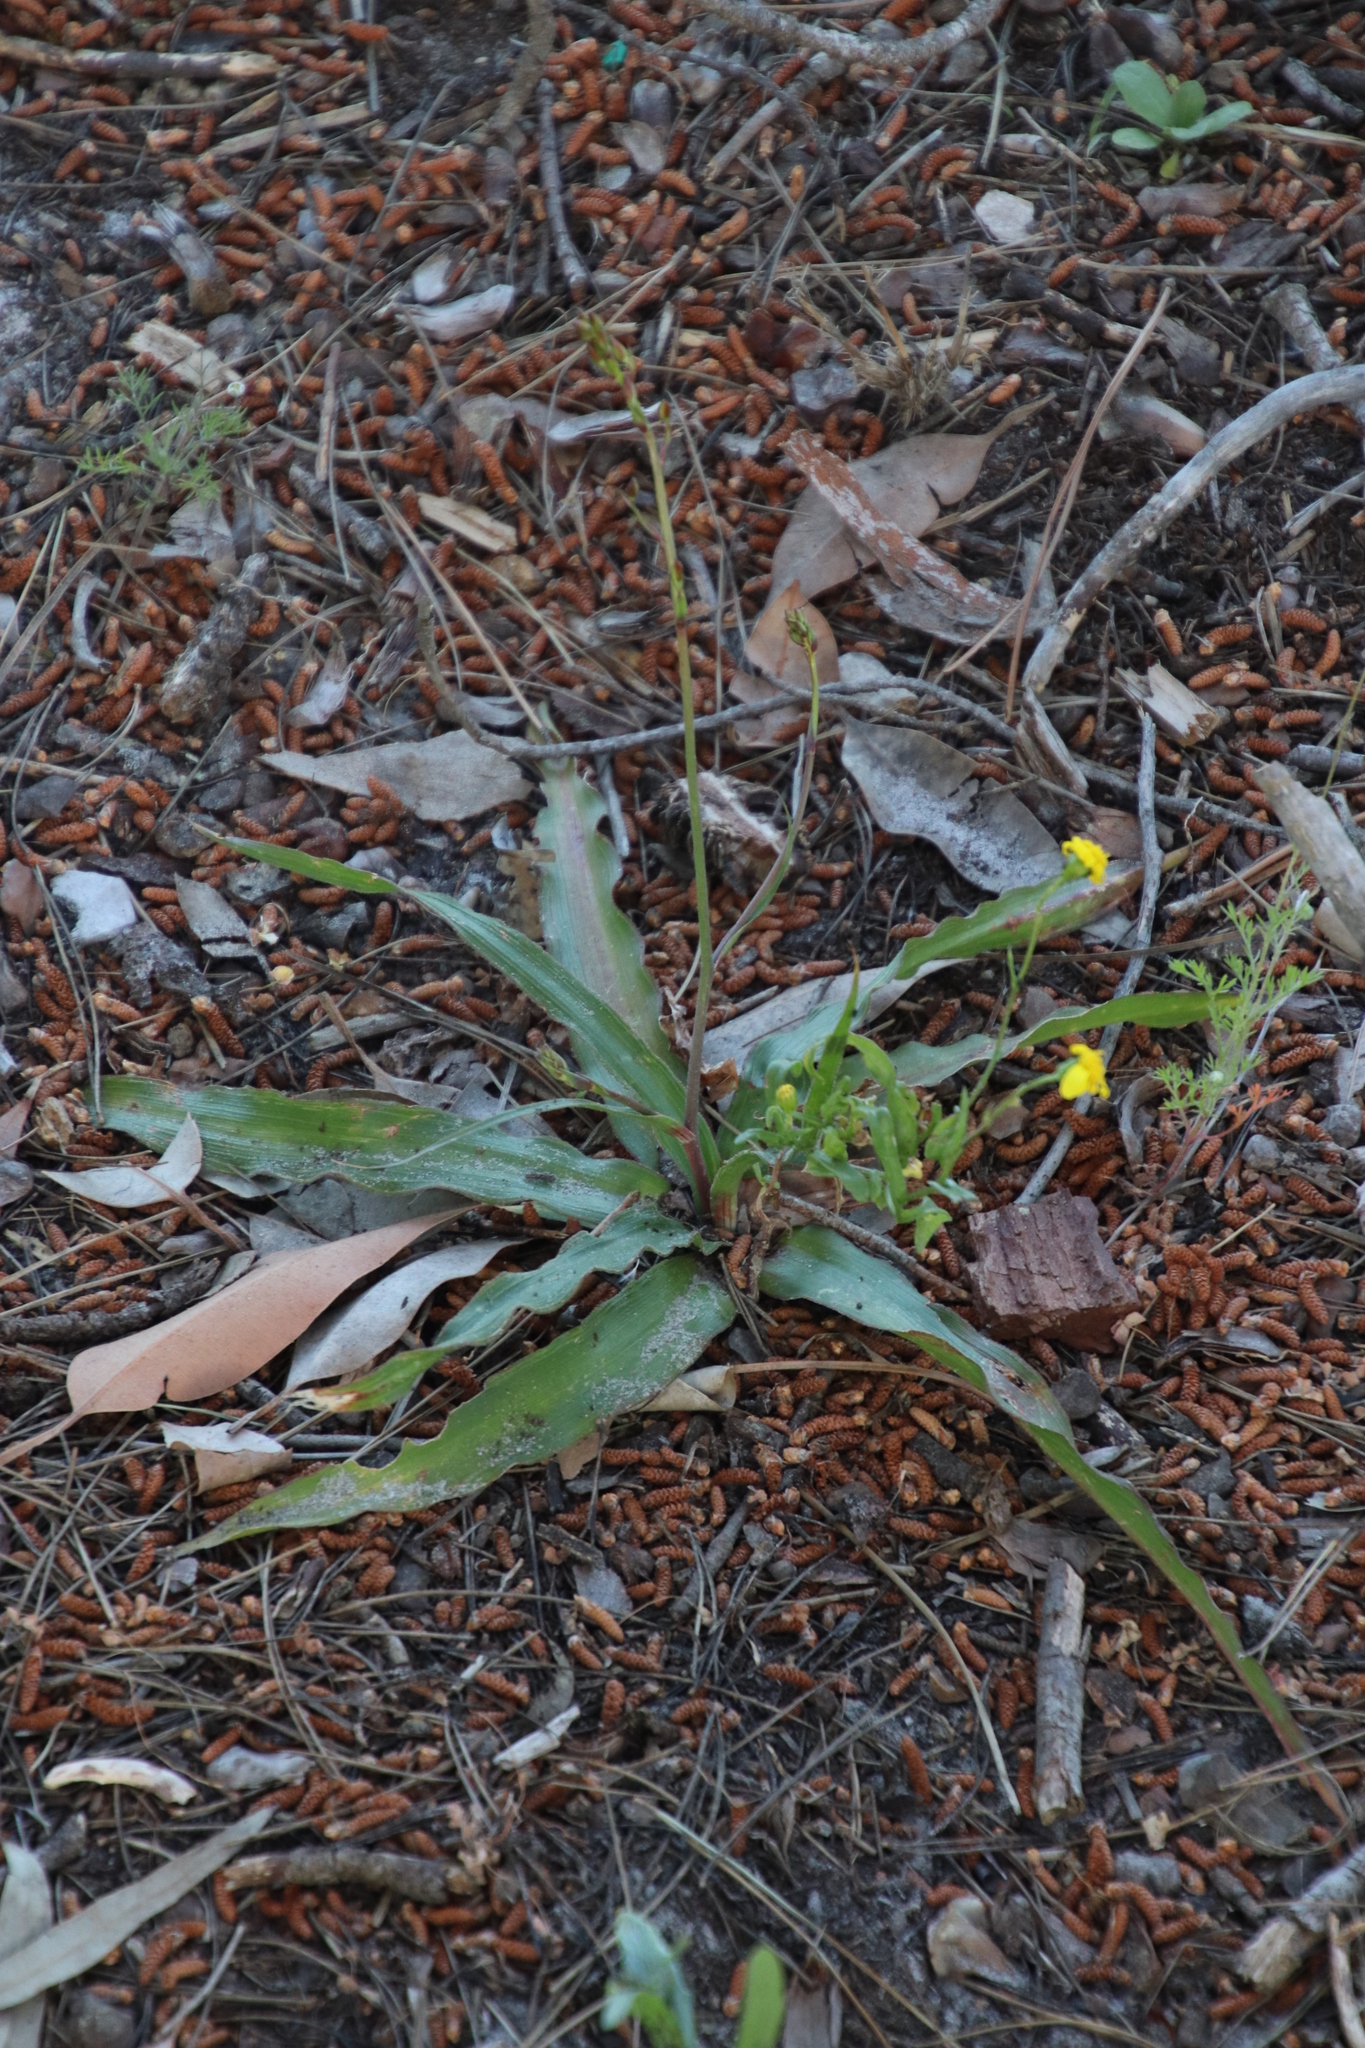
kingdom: Plantae
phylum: Tracheophyta
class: Liliopsida
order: Asparagales
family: Tecophilaeaceae
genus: Cyanella
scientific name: Cyanella hyacinthoides
